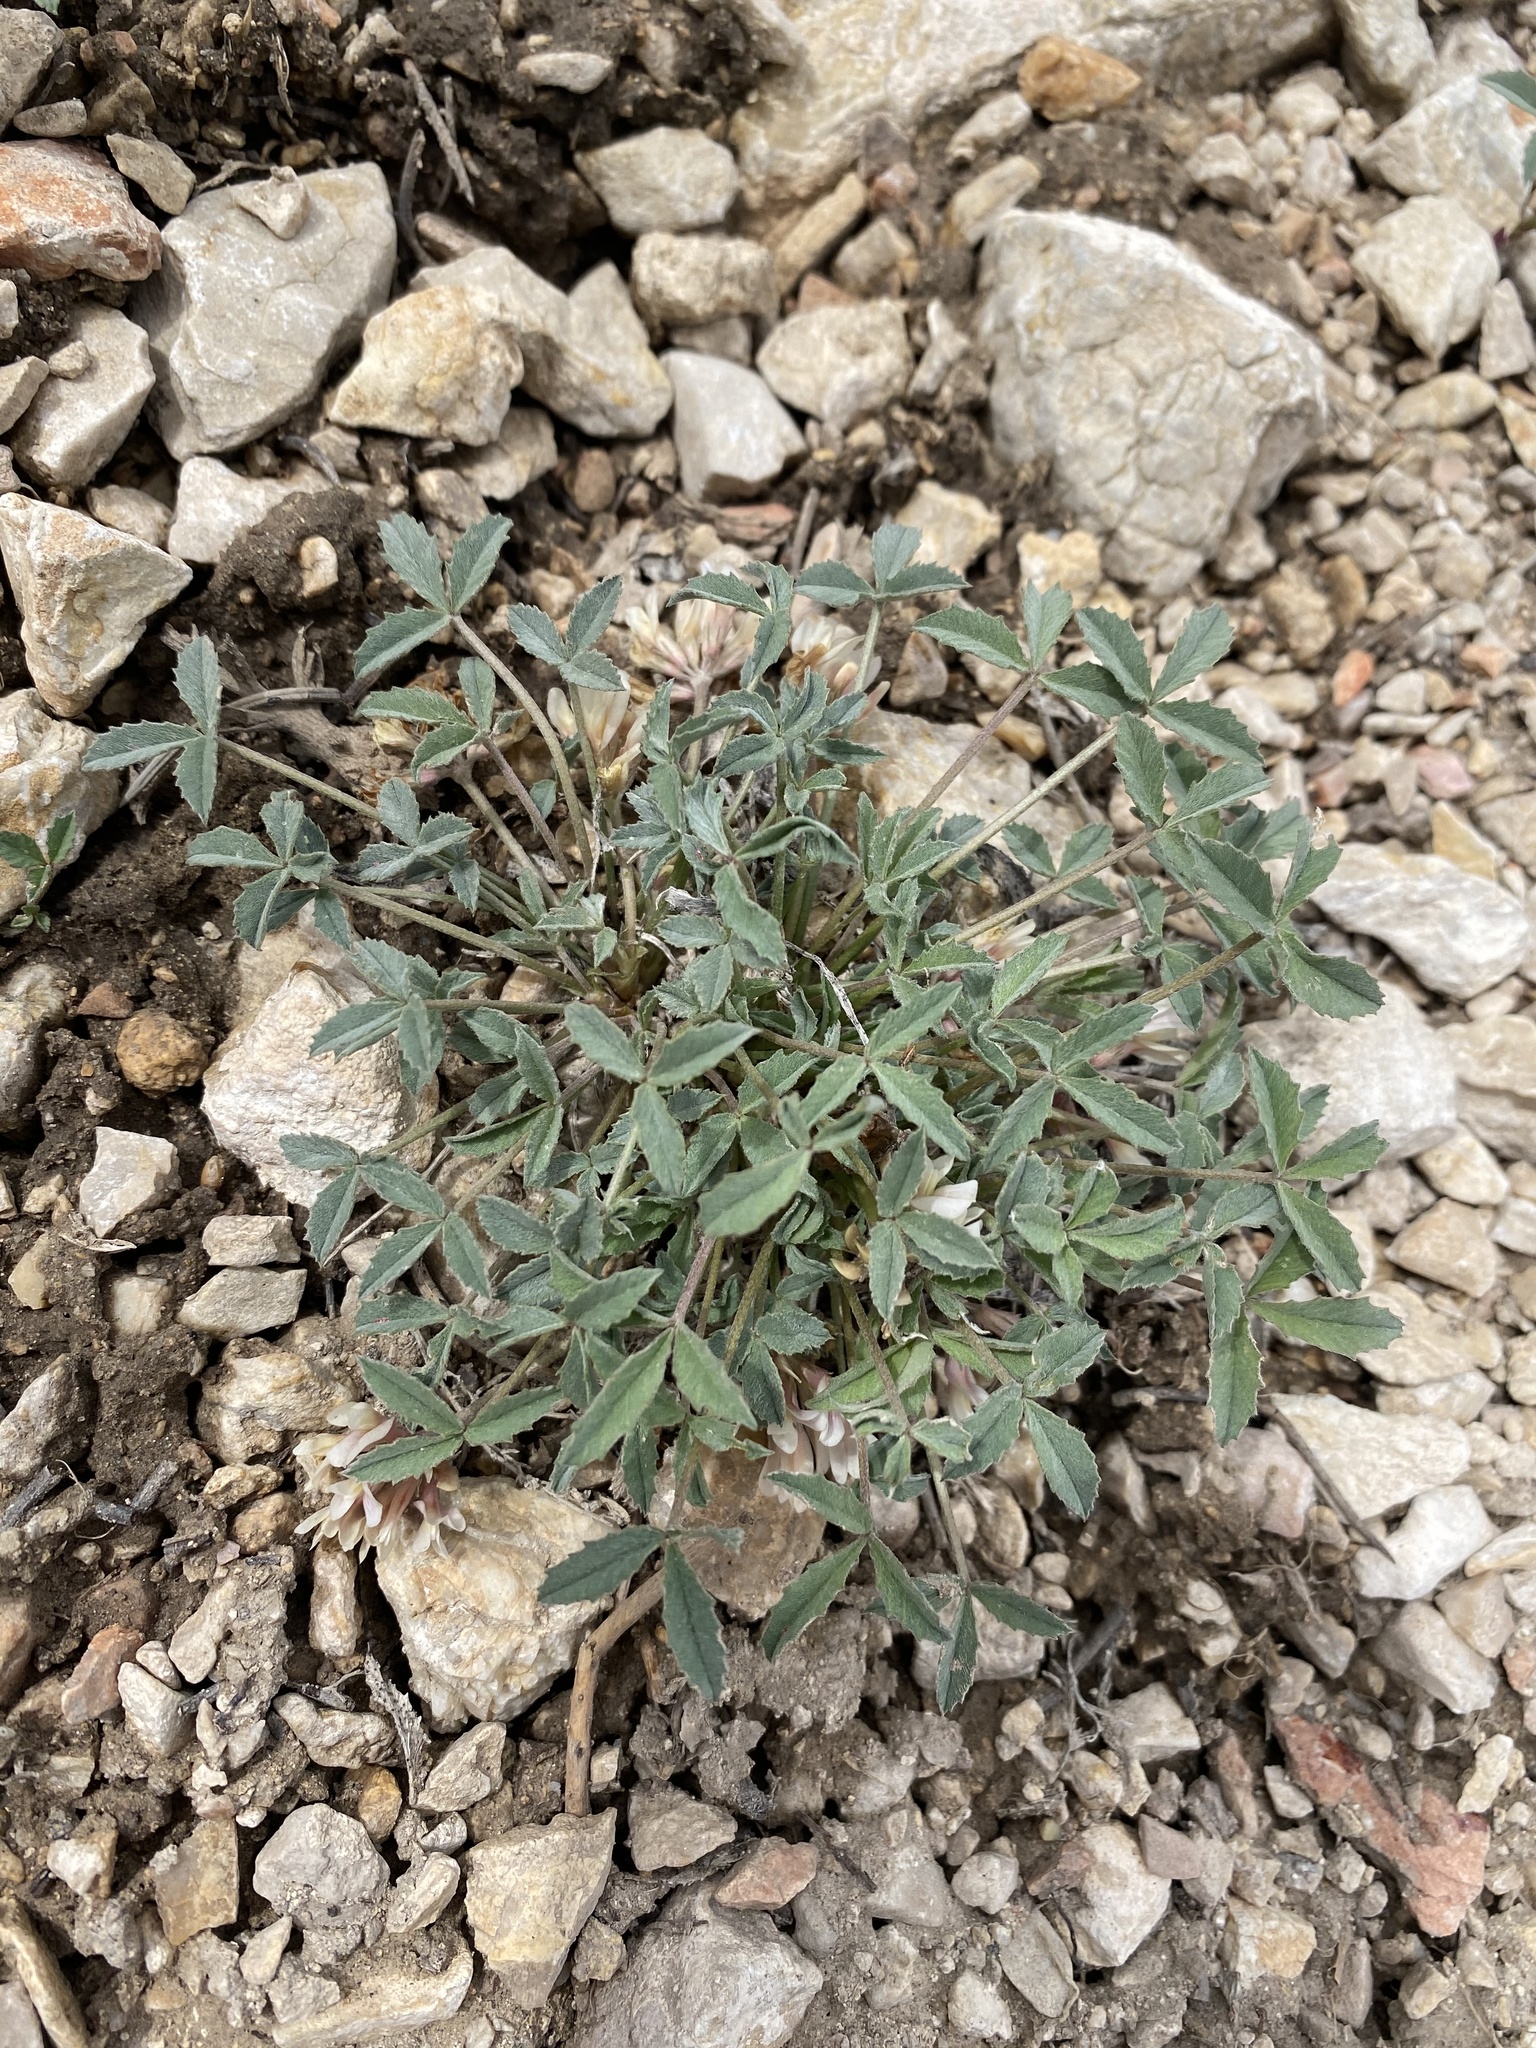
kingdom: Plantae
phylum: Tracheophyta
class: Magnoliopsida
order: Fabales
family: Fabaceae
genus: Trifolium
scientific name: Trifolium gymnocarpon
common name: Tufted clover
